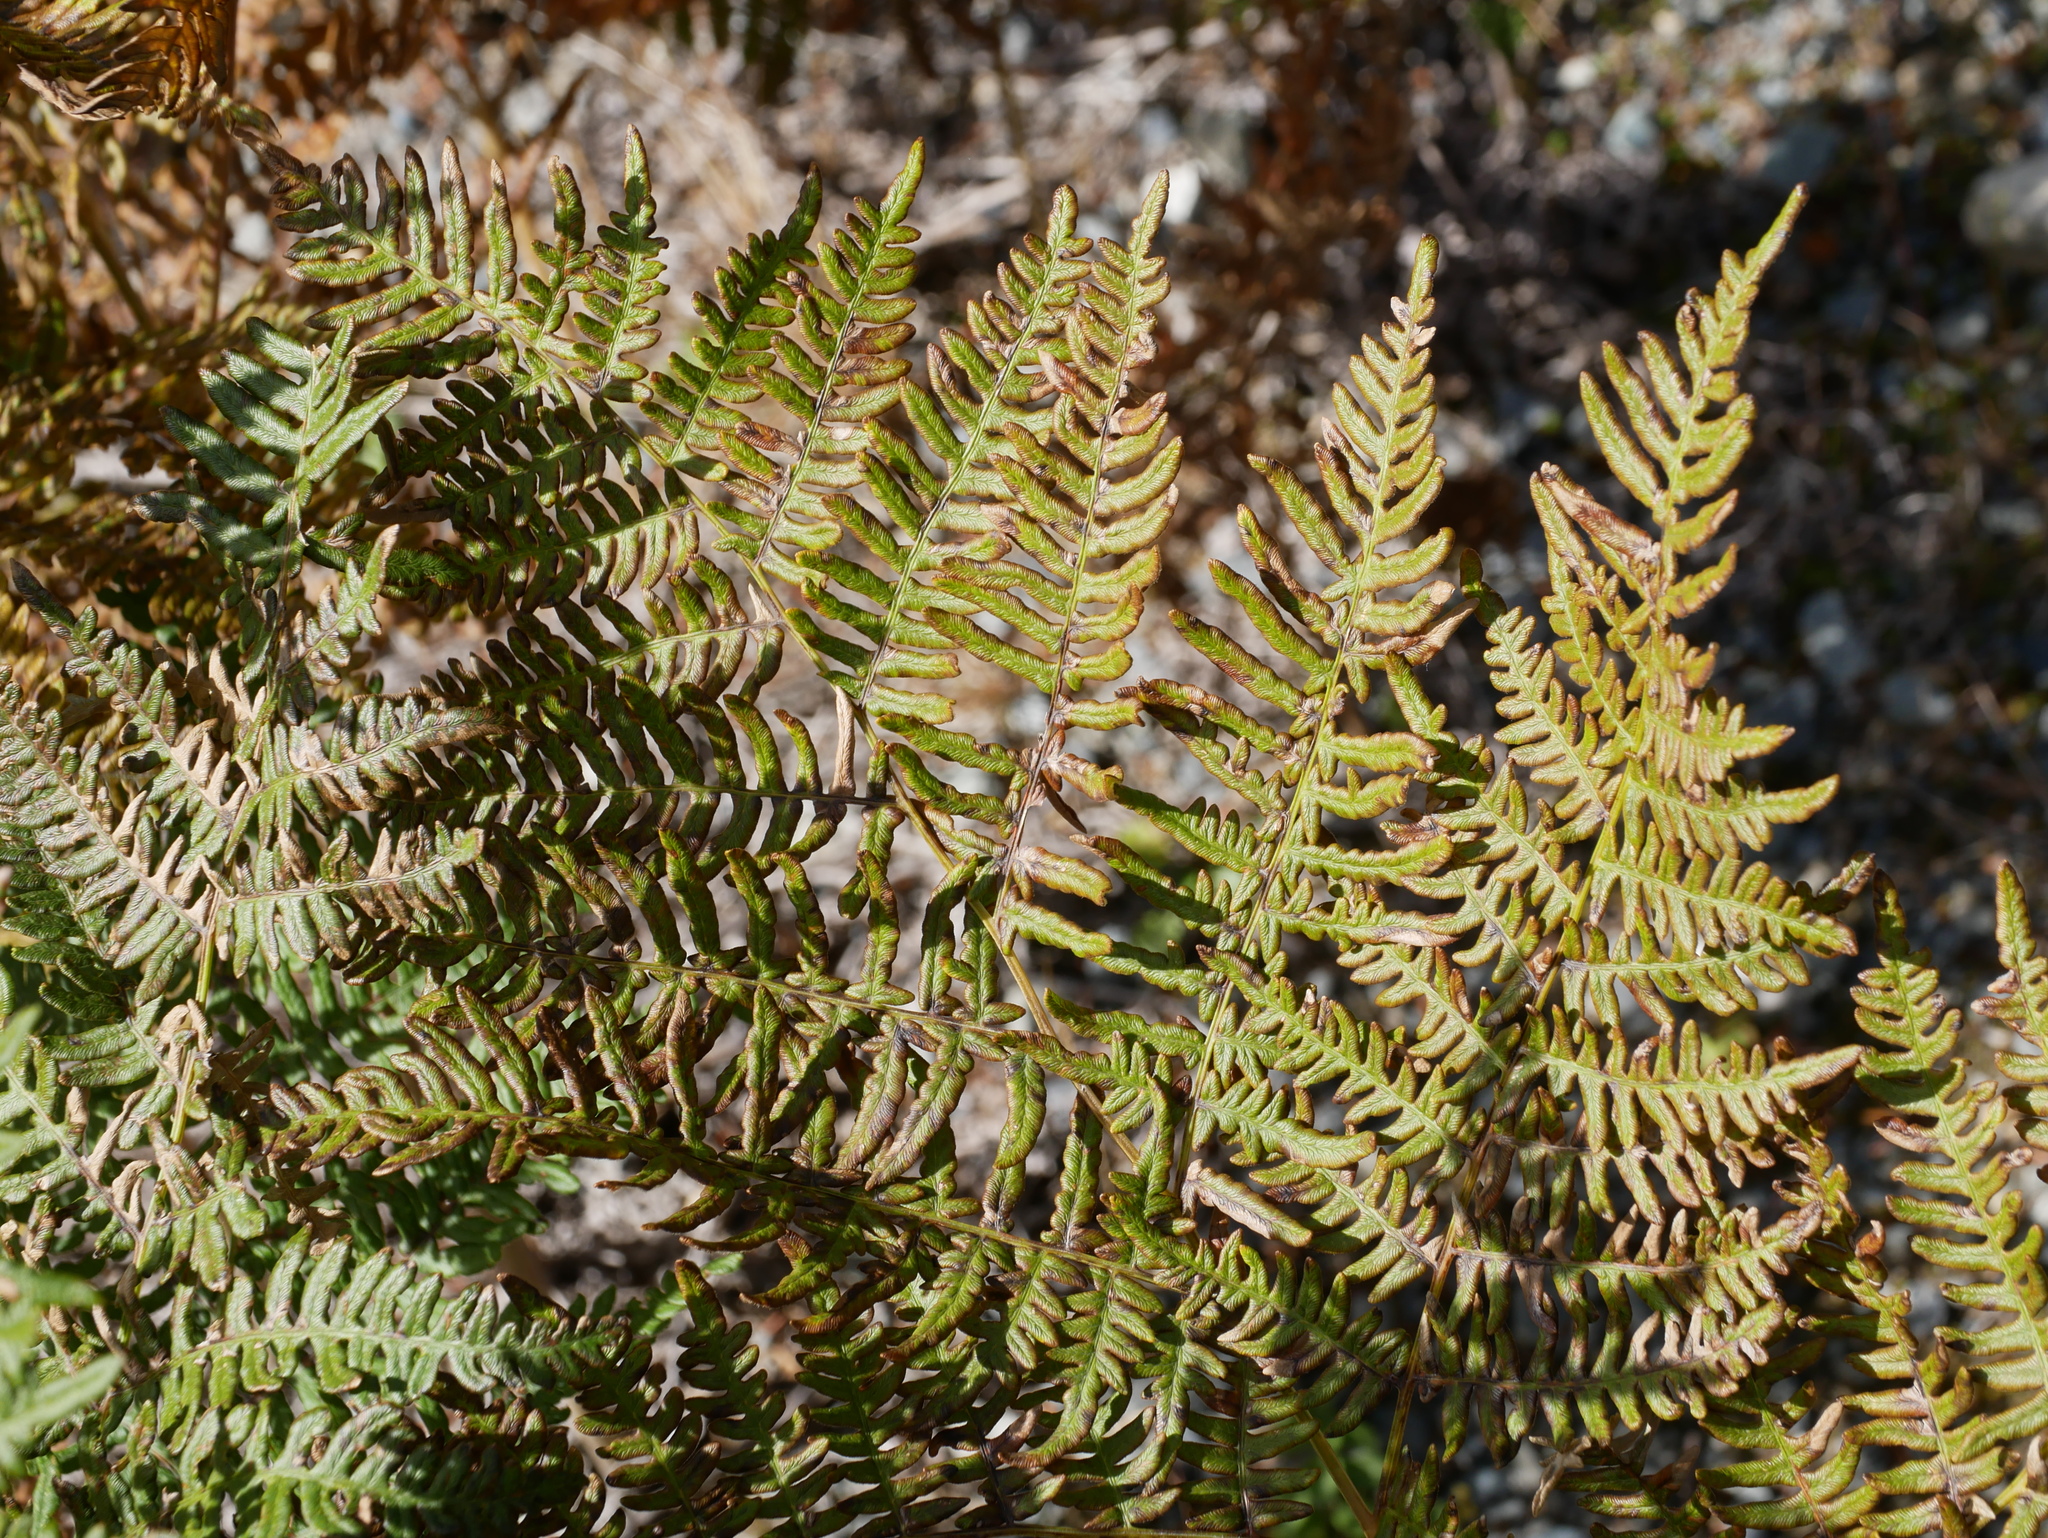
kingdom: Plantae
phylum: Tracheophyta
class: Polypodiopsida
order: Polypodiales
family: Dennstaedtiaceae
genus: Pteridium
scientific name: Pteridium aquilinum
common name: Bracken
